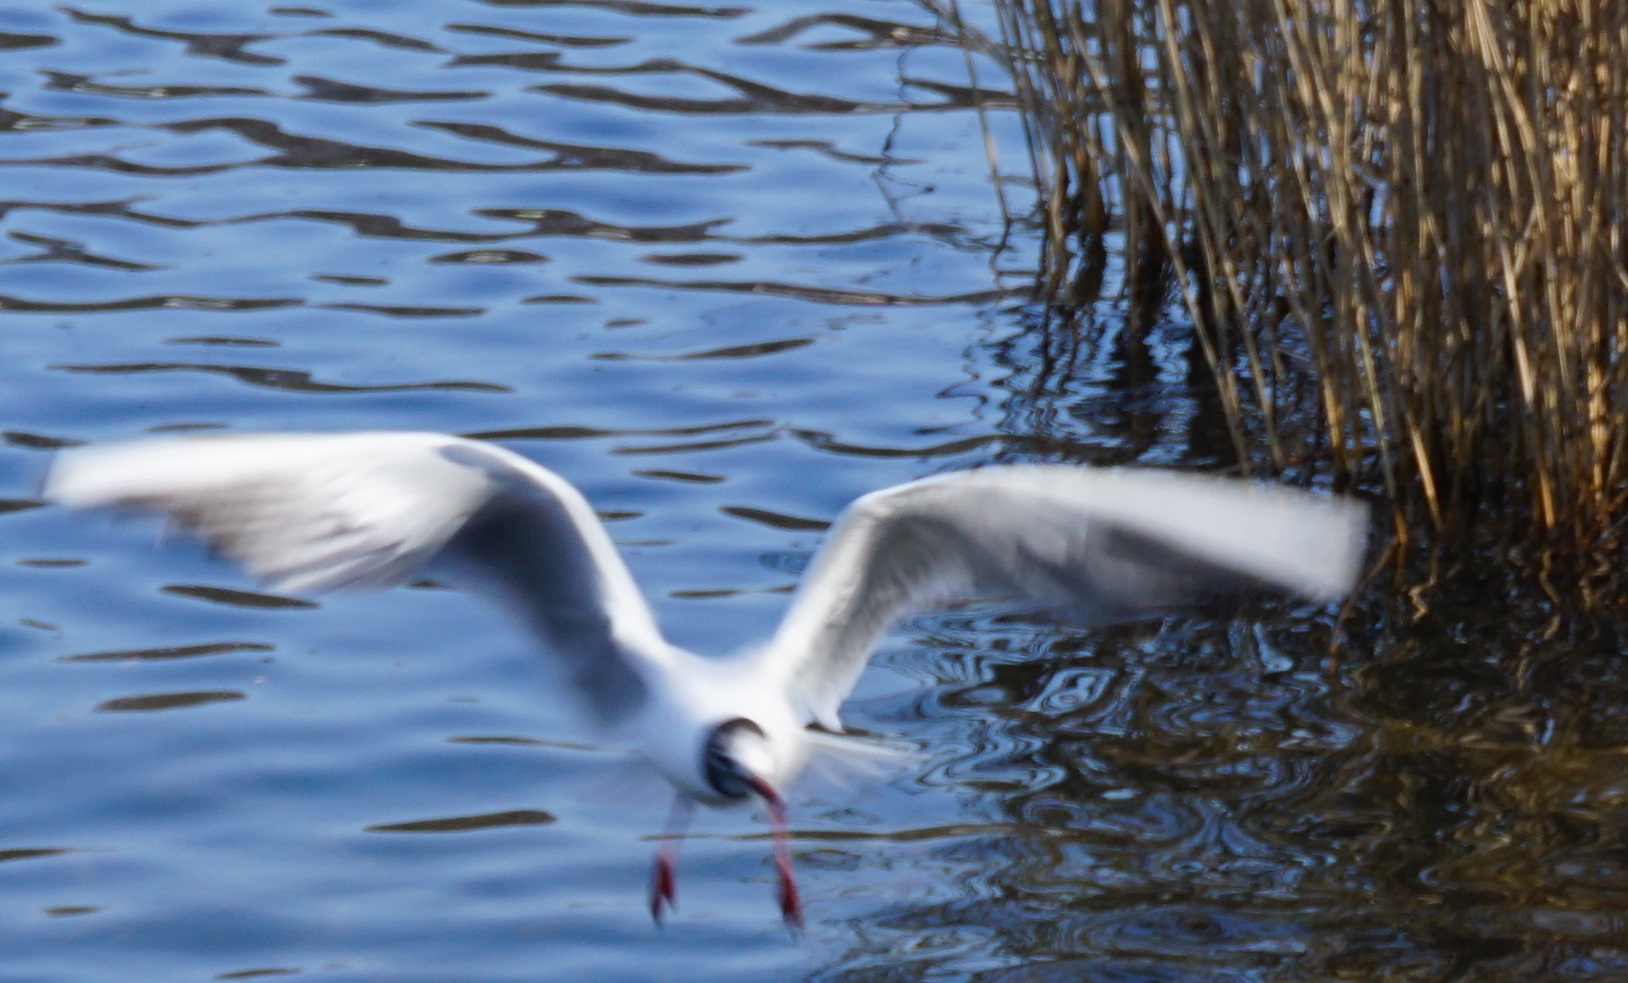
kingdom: Animalia
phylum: Chordata
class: Aves
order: Charadriiformes
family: Laridae
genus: Chroicocephalus
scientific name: Chroicocephalus ridibundus
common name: Black-headed gull
